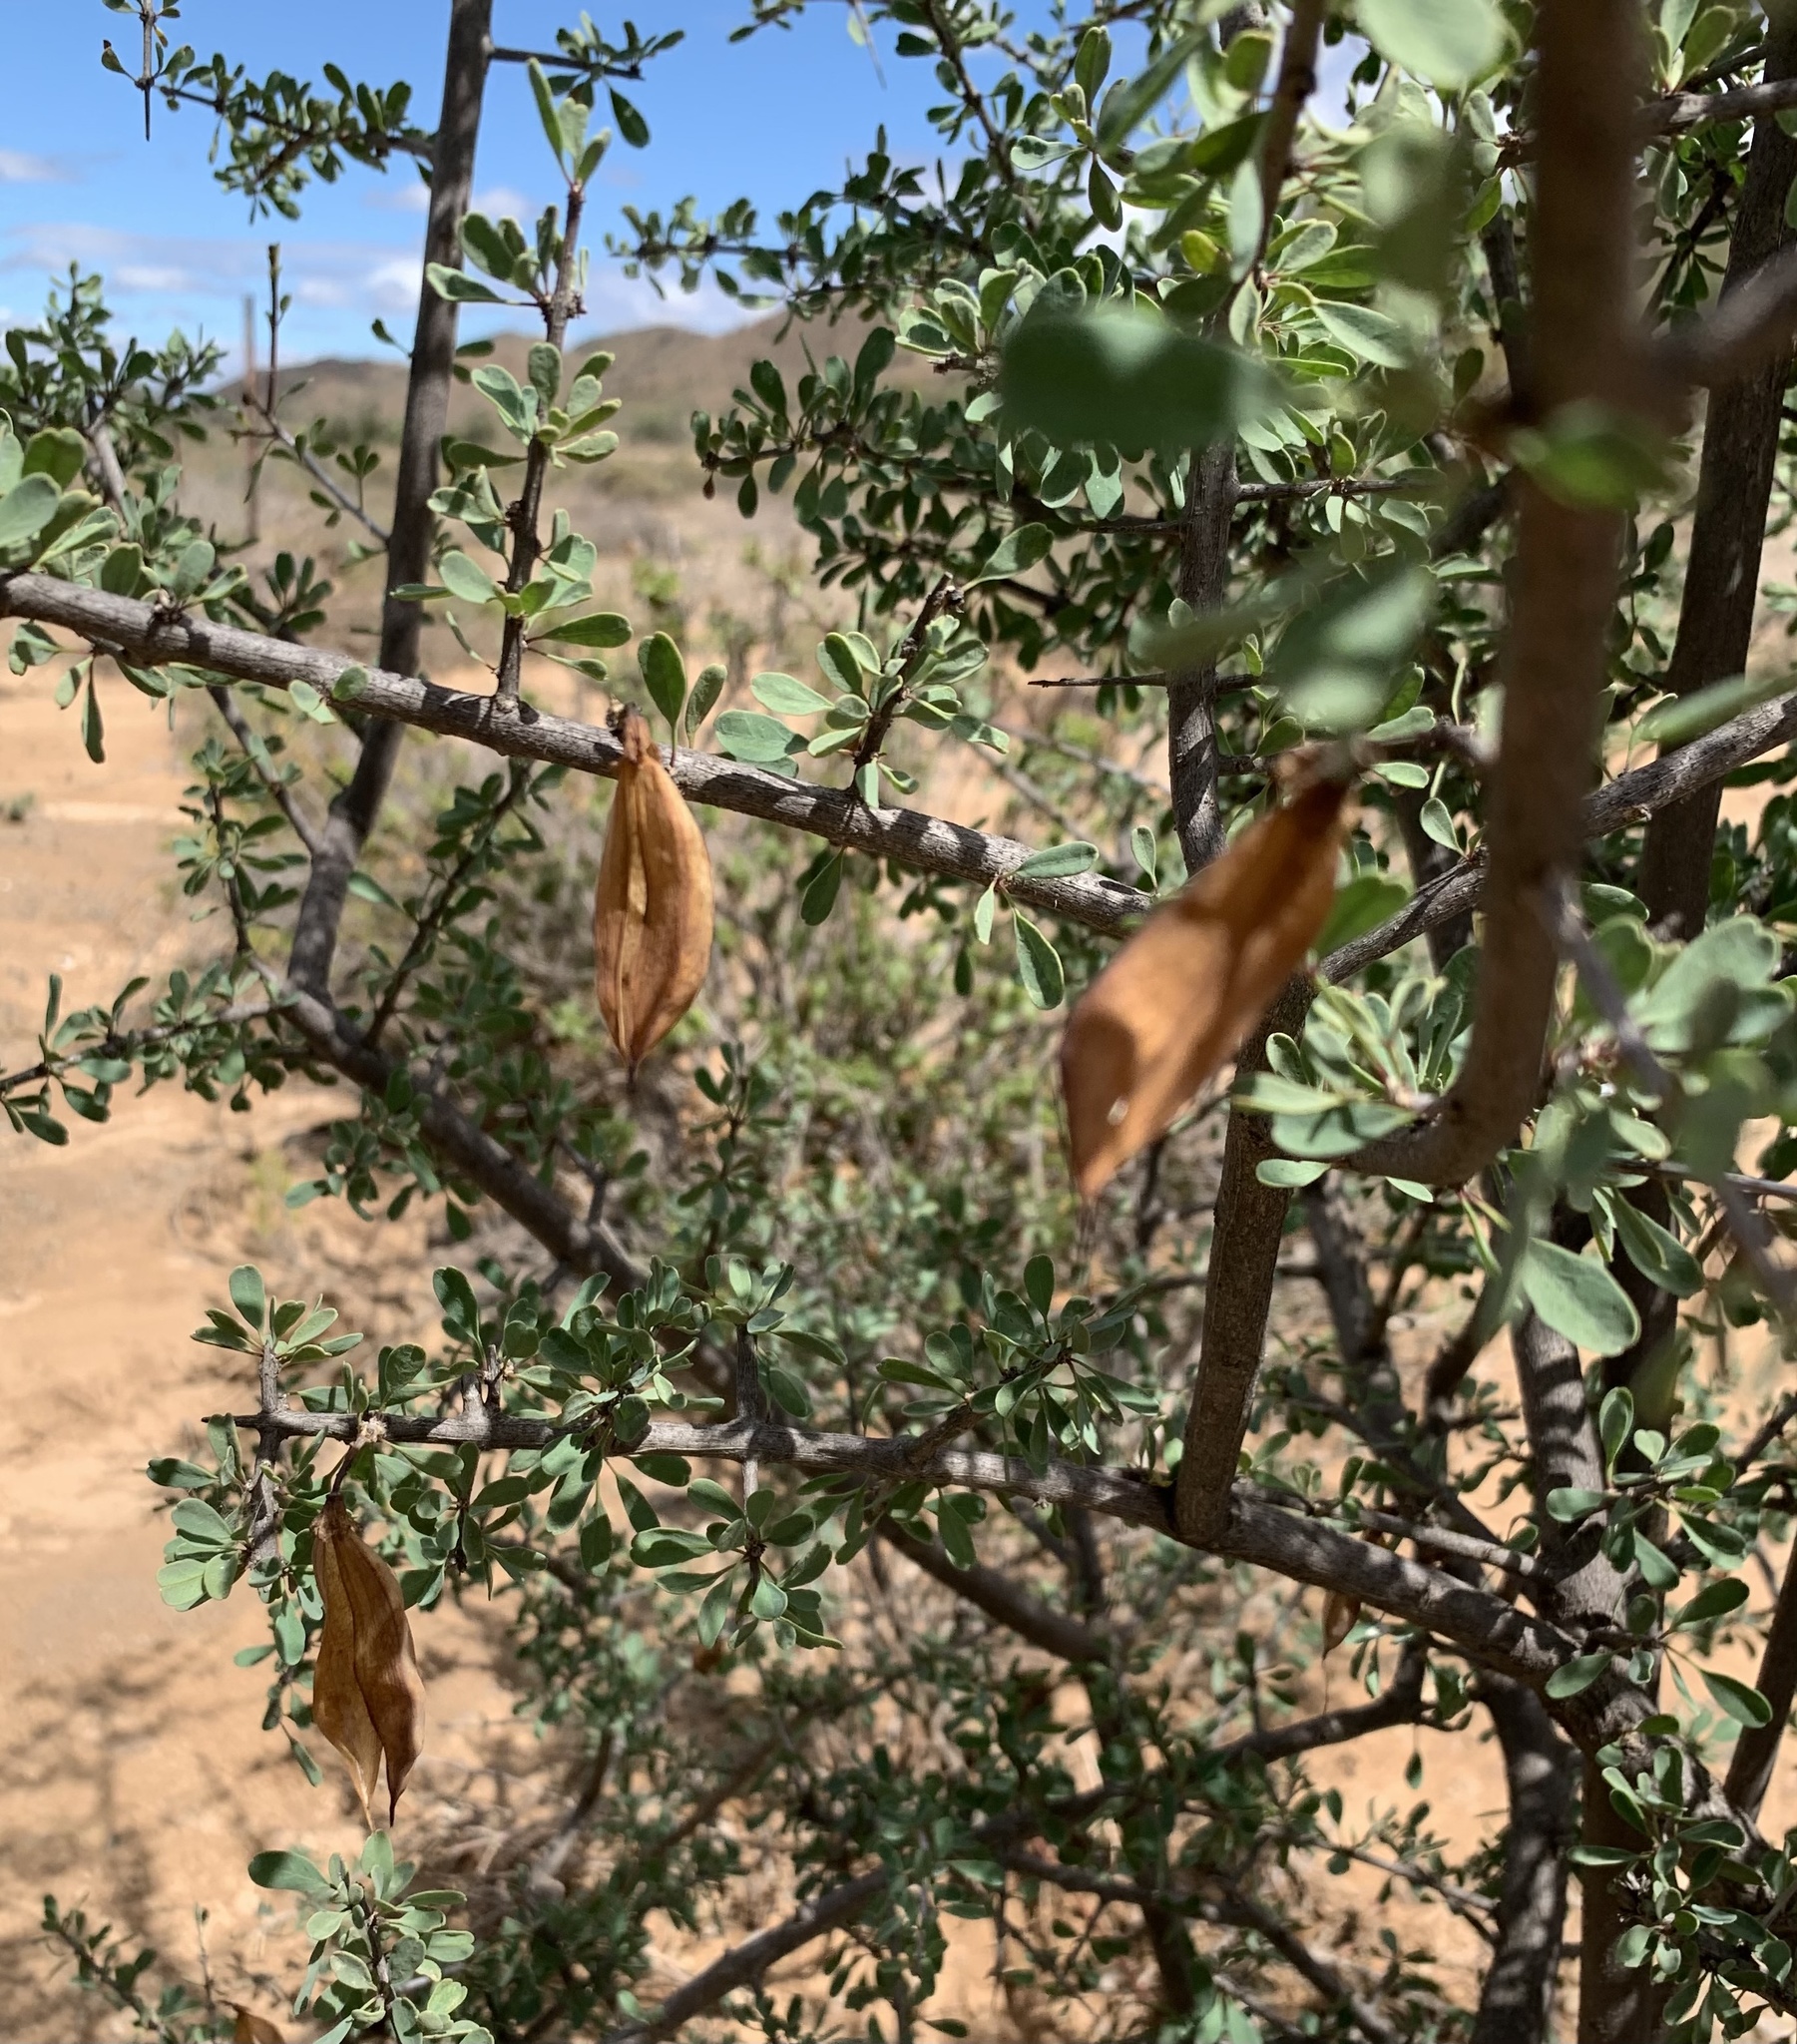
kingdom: Plantae
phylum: Tracheophyta
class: Magnoliopsida
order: Lamiales
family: Bignoniaceae
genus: Rhigozum
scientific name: Rhigozum obovatum
